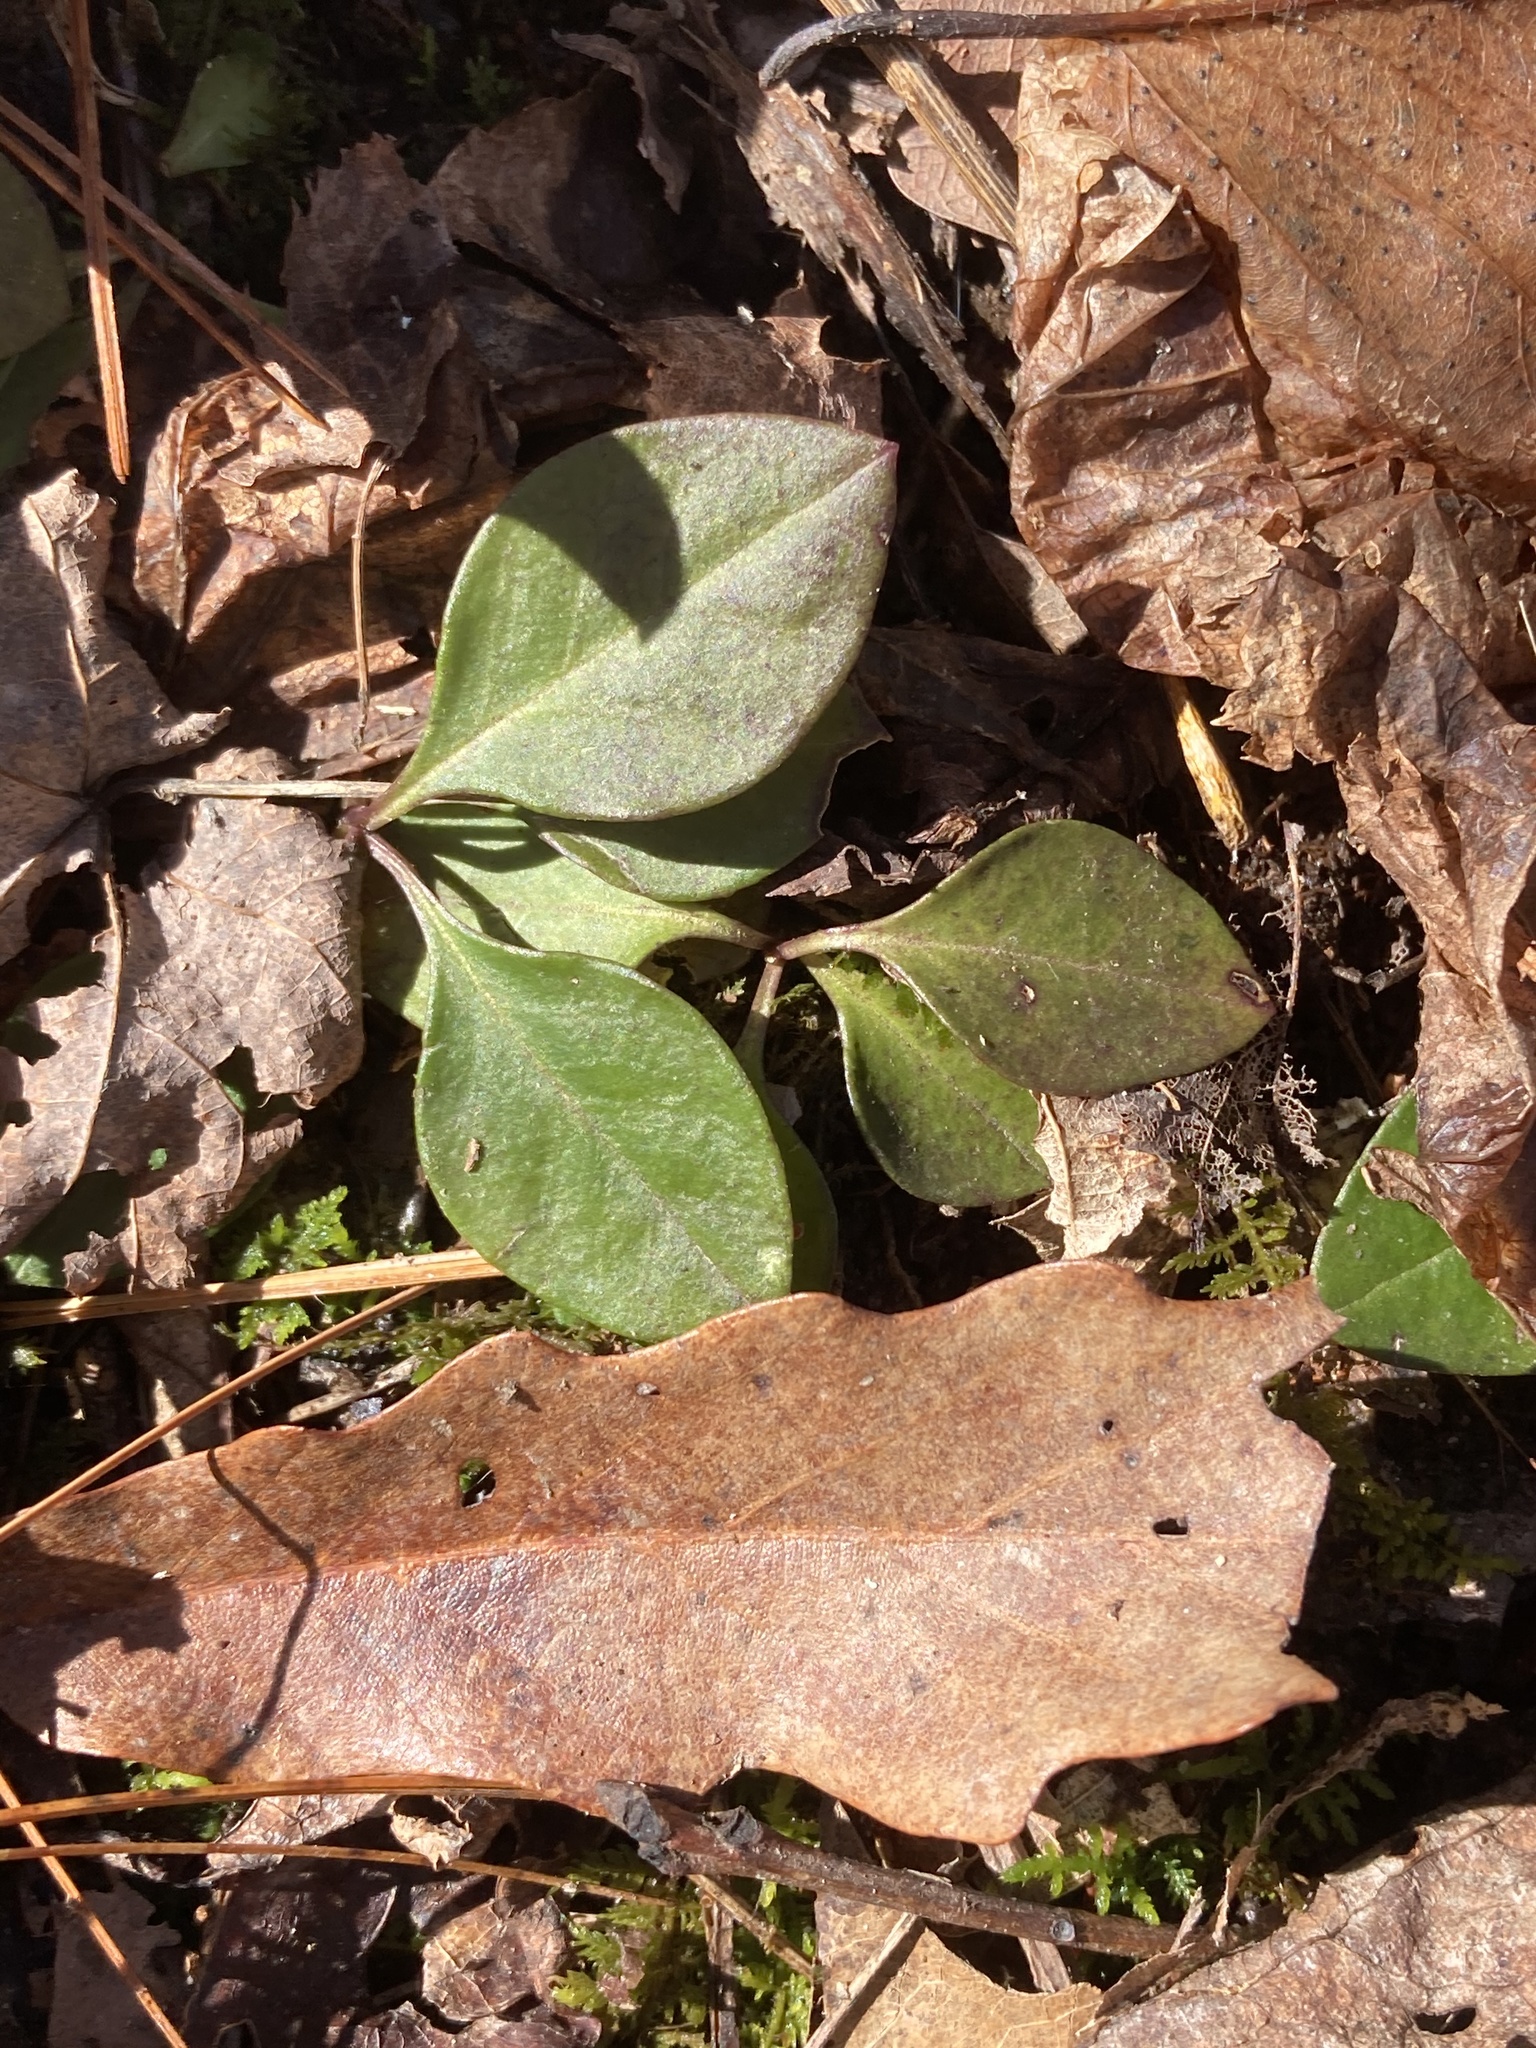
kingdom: Plantae
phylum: Tracheophyta
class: Magnoliopsida
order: Fabales
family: Polygalaceae
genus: Polygaloides
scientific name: Polygaloides paucifolia
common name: Bird-on-the-wing
